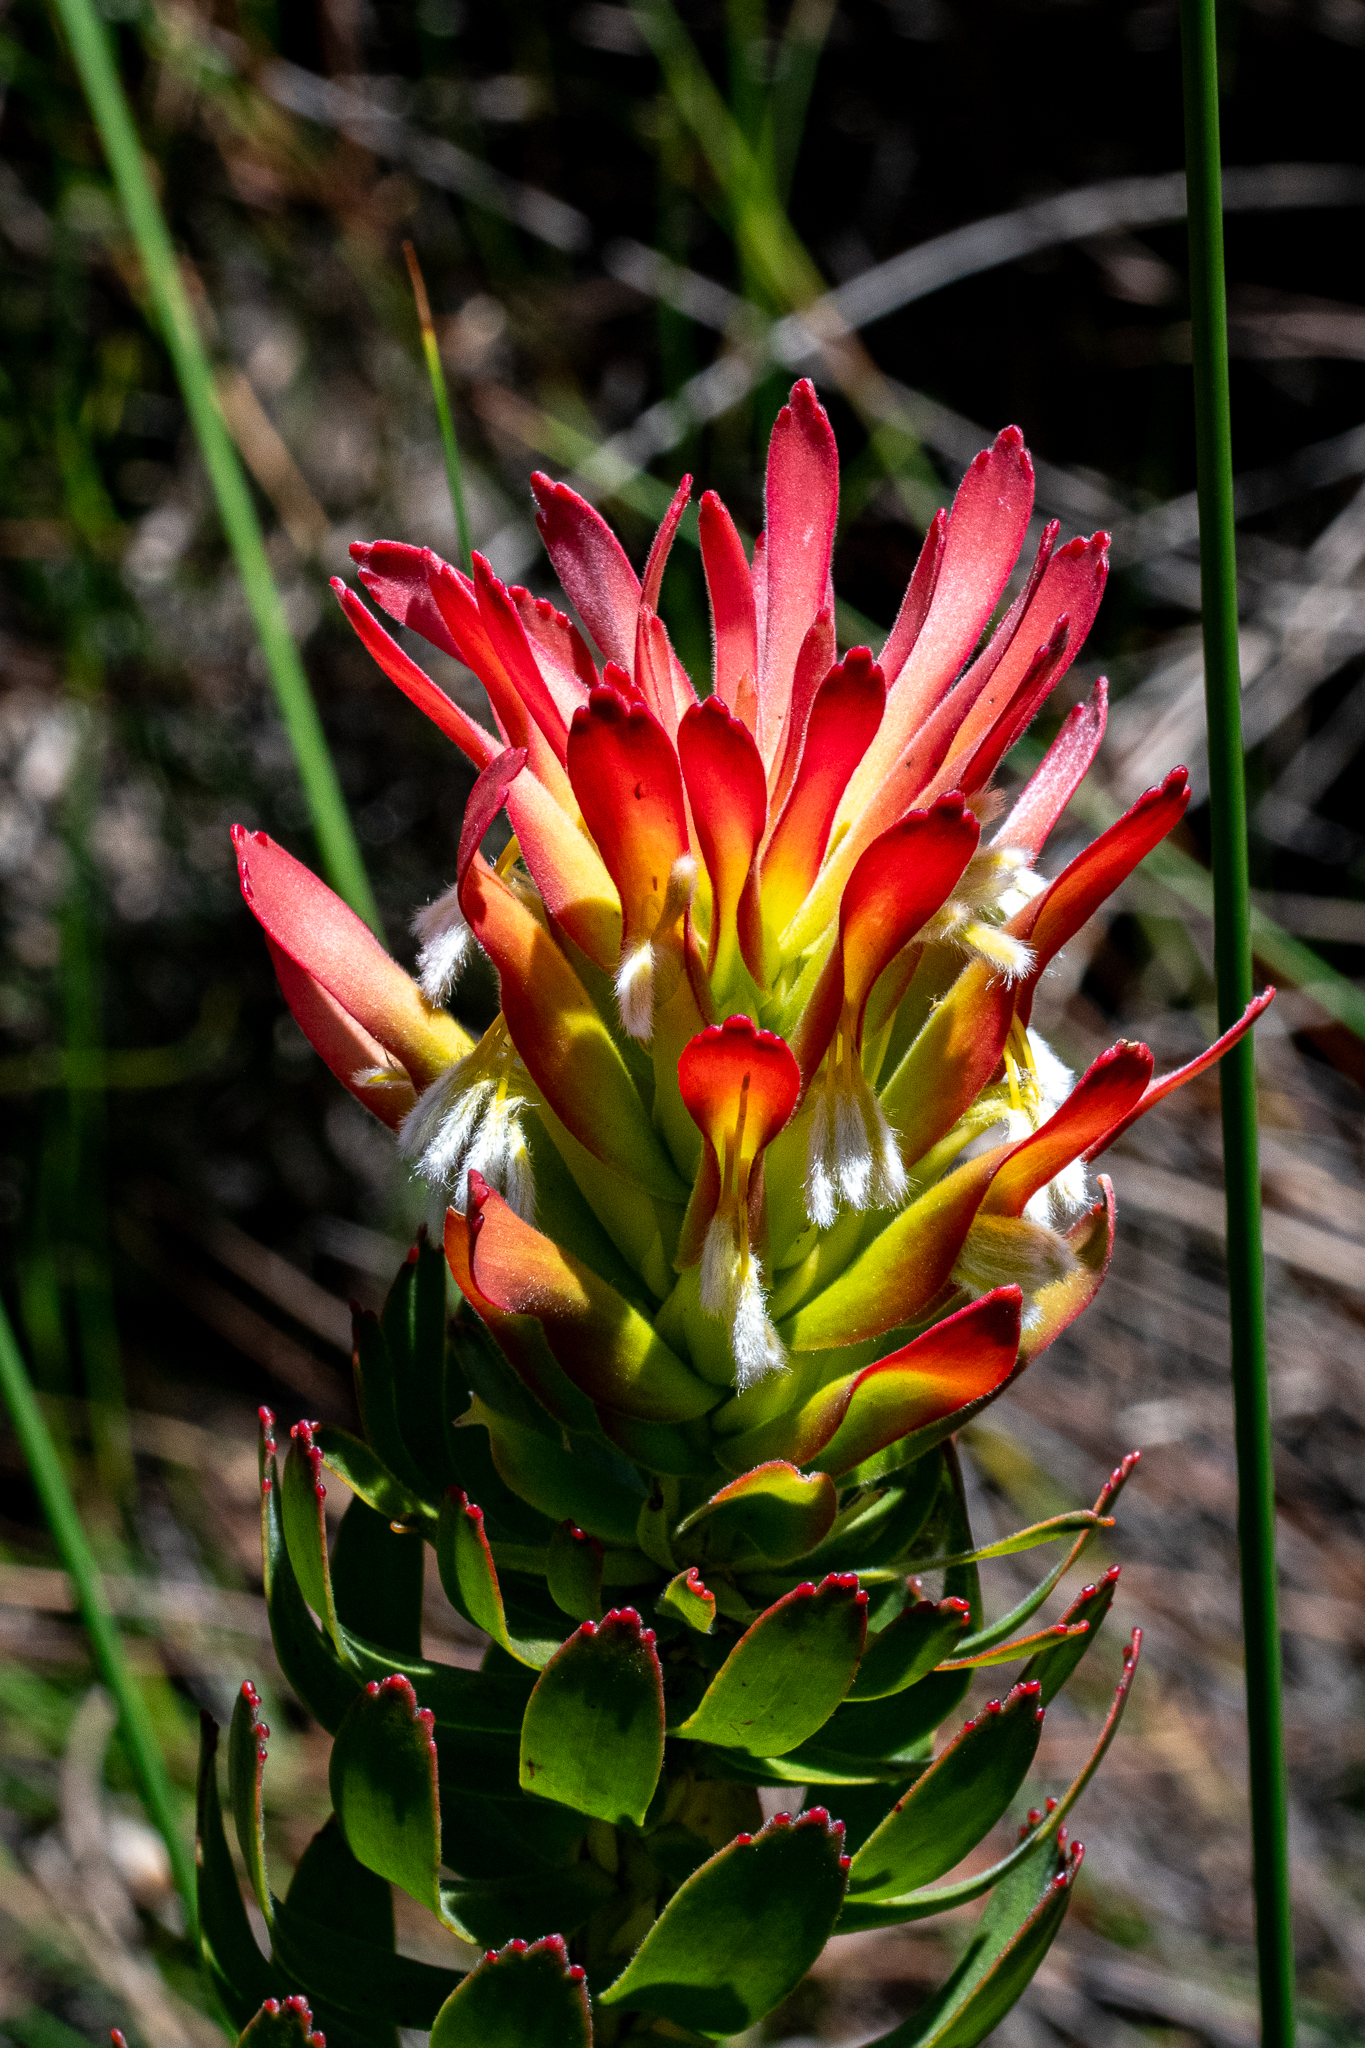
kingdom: Plantae
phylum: Tracheophyta
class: Magnoliopsida
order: Proteales
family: Proteaceae
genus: Mimetes
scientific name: Mimetes cucullatus
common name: Common pagoda
